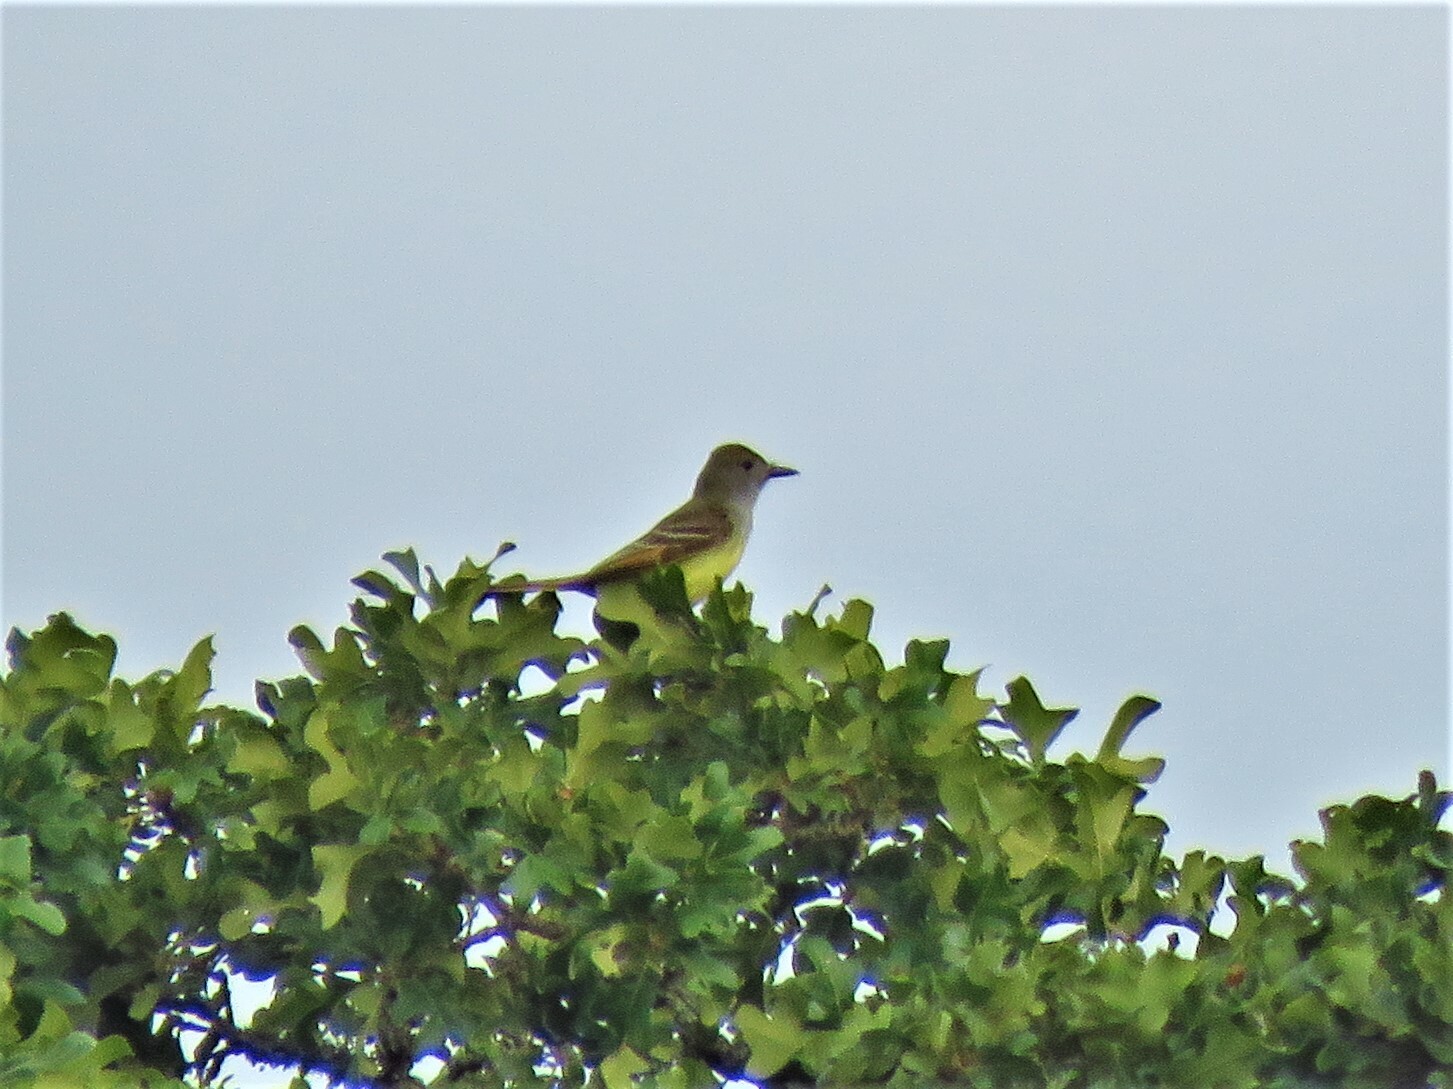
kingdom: Animalia
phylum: Chordata
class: Aves
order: Passeriformes
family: Tyrannidae
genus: Myiarchus
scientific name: Myiarchus crinitus
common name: Great crested flycatcher
